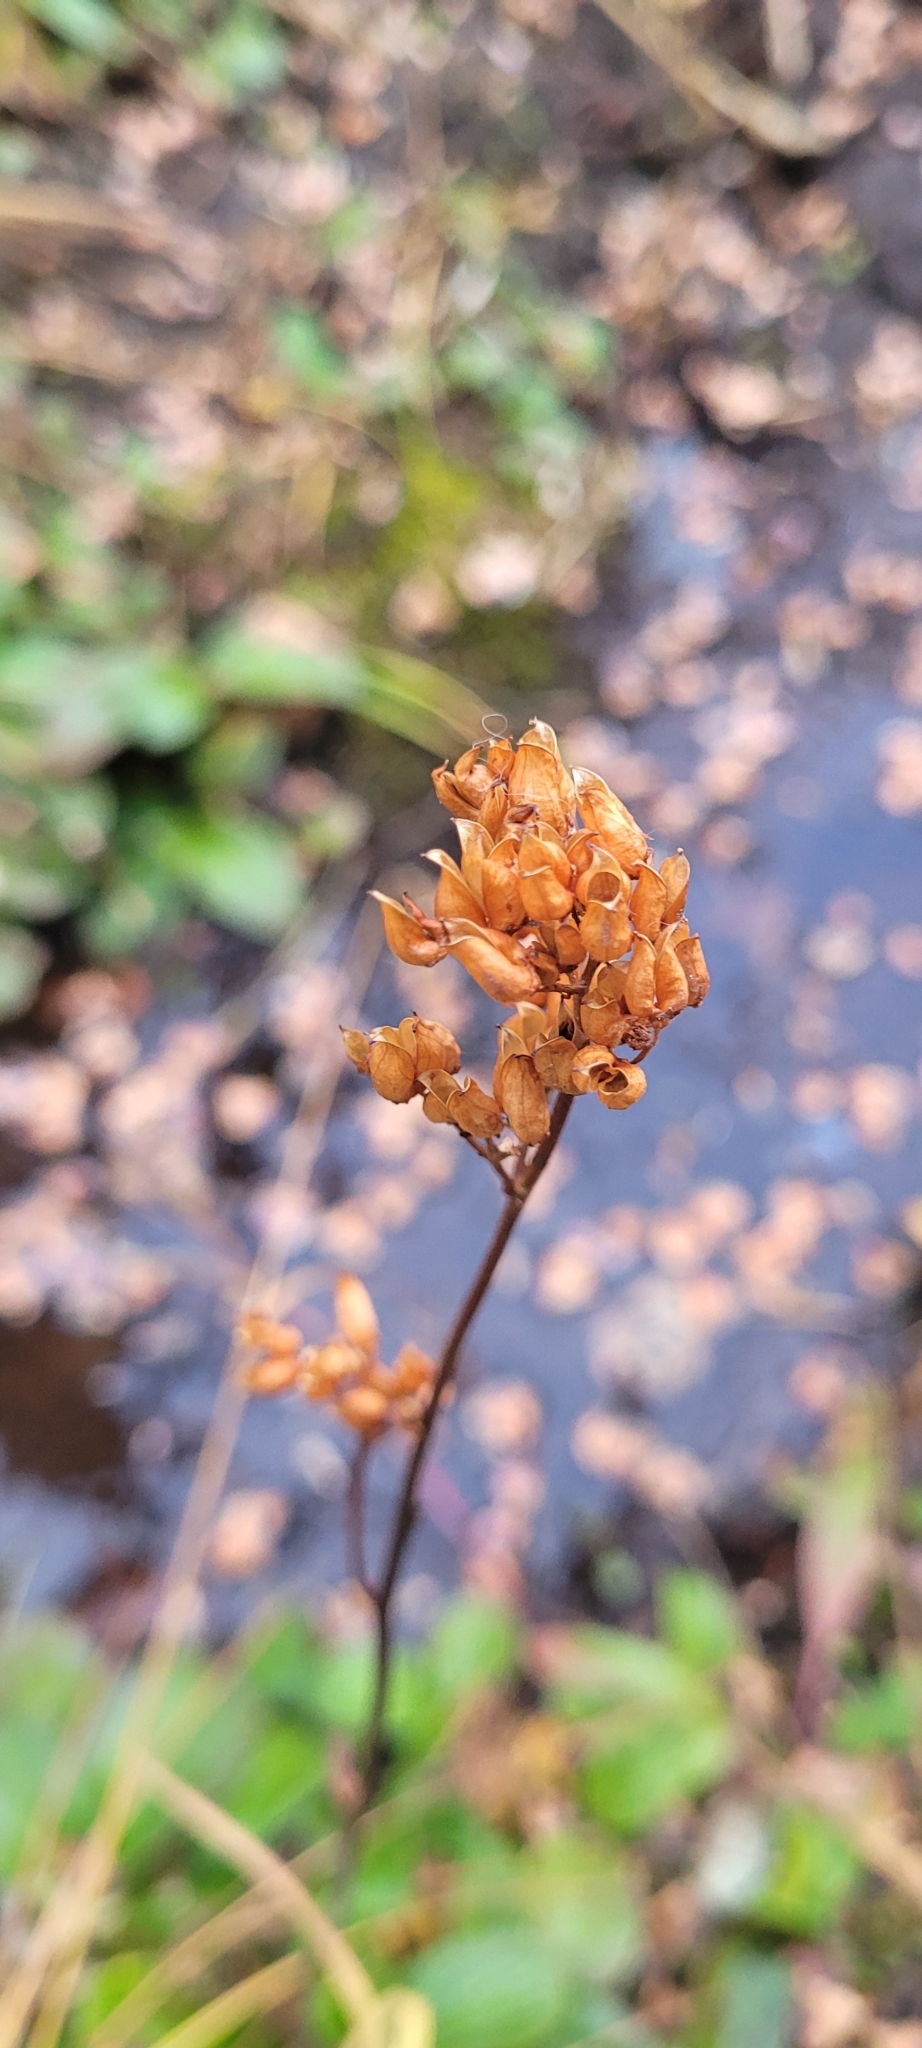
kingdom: Plantae
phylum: Tracheophyta
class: Magnoliopsida
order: Saxifragales
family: Saxifragaceae
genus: Leptarrhena
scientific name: Leptarrhena pyrolifolia
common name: Leatherleaf-saxifrage
